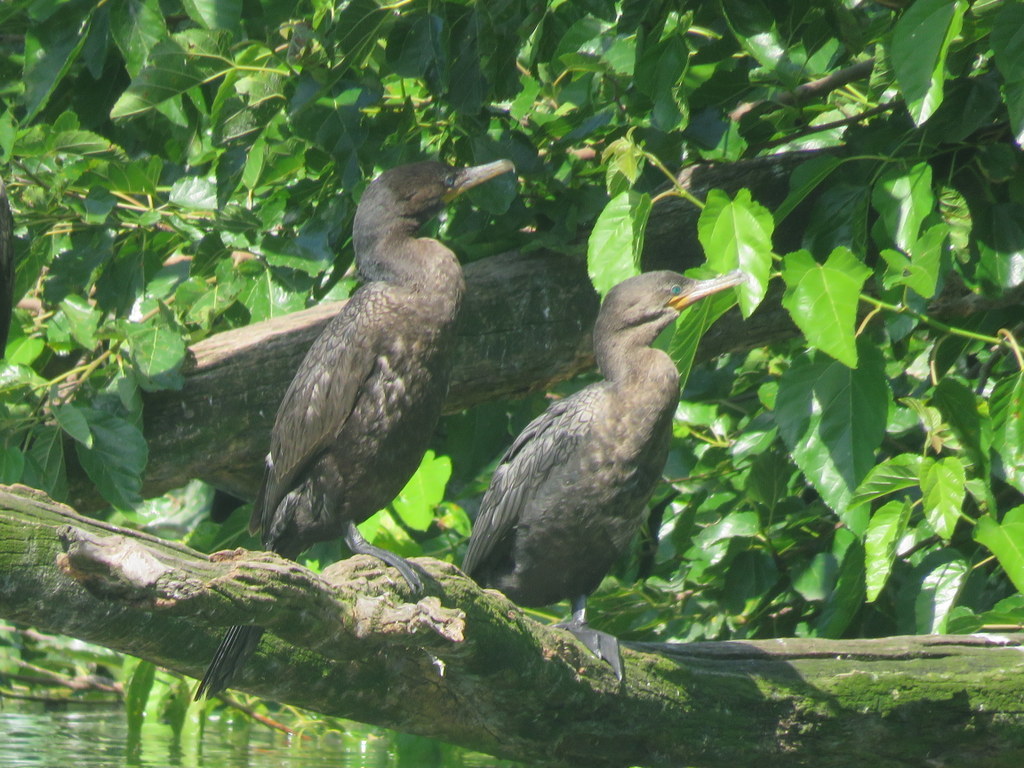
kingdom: Animalia
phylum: Chordata
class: Aves
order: Suliformes
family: Phalacrocoracidae
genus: Phalacrocorax
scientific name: Phalacrocorax brasilianus
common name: Neotropic cormorant
